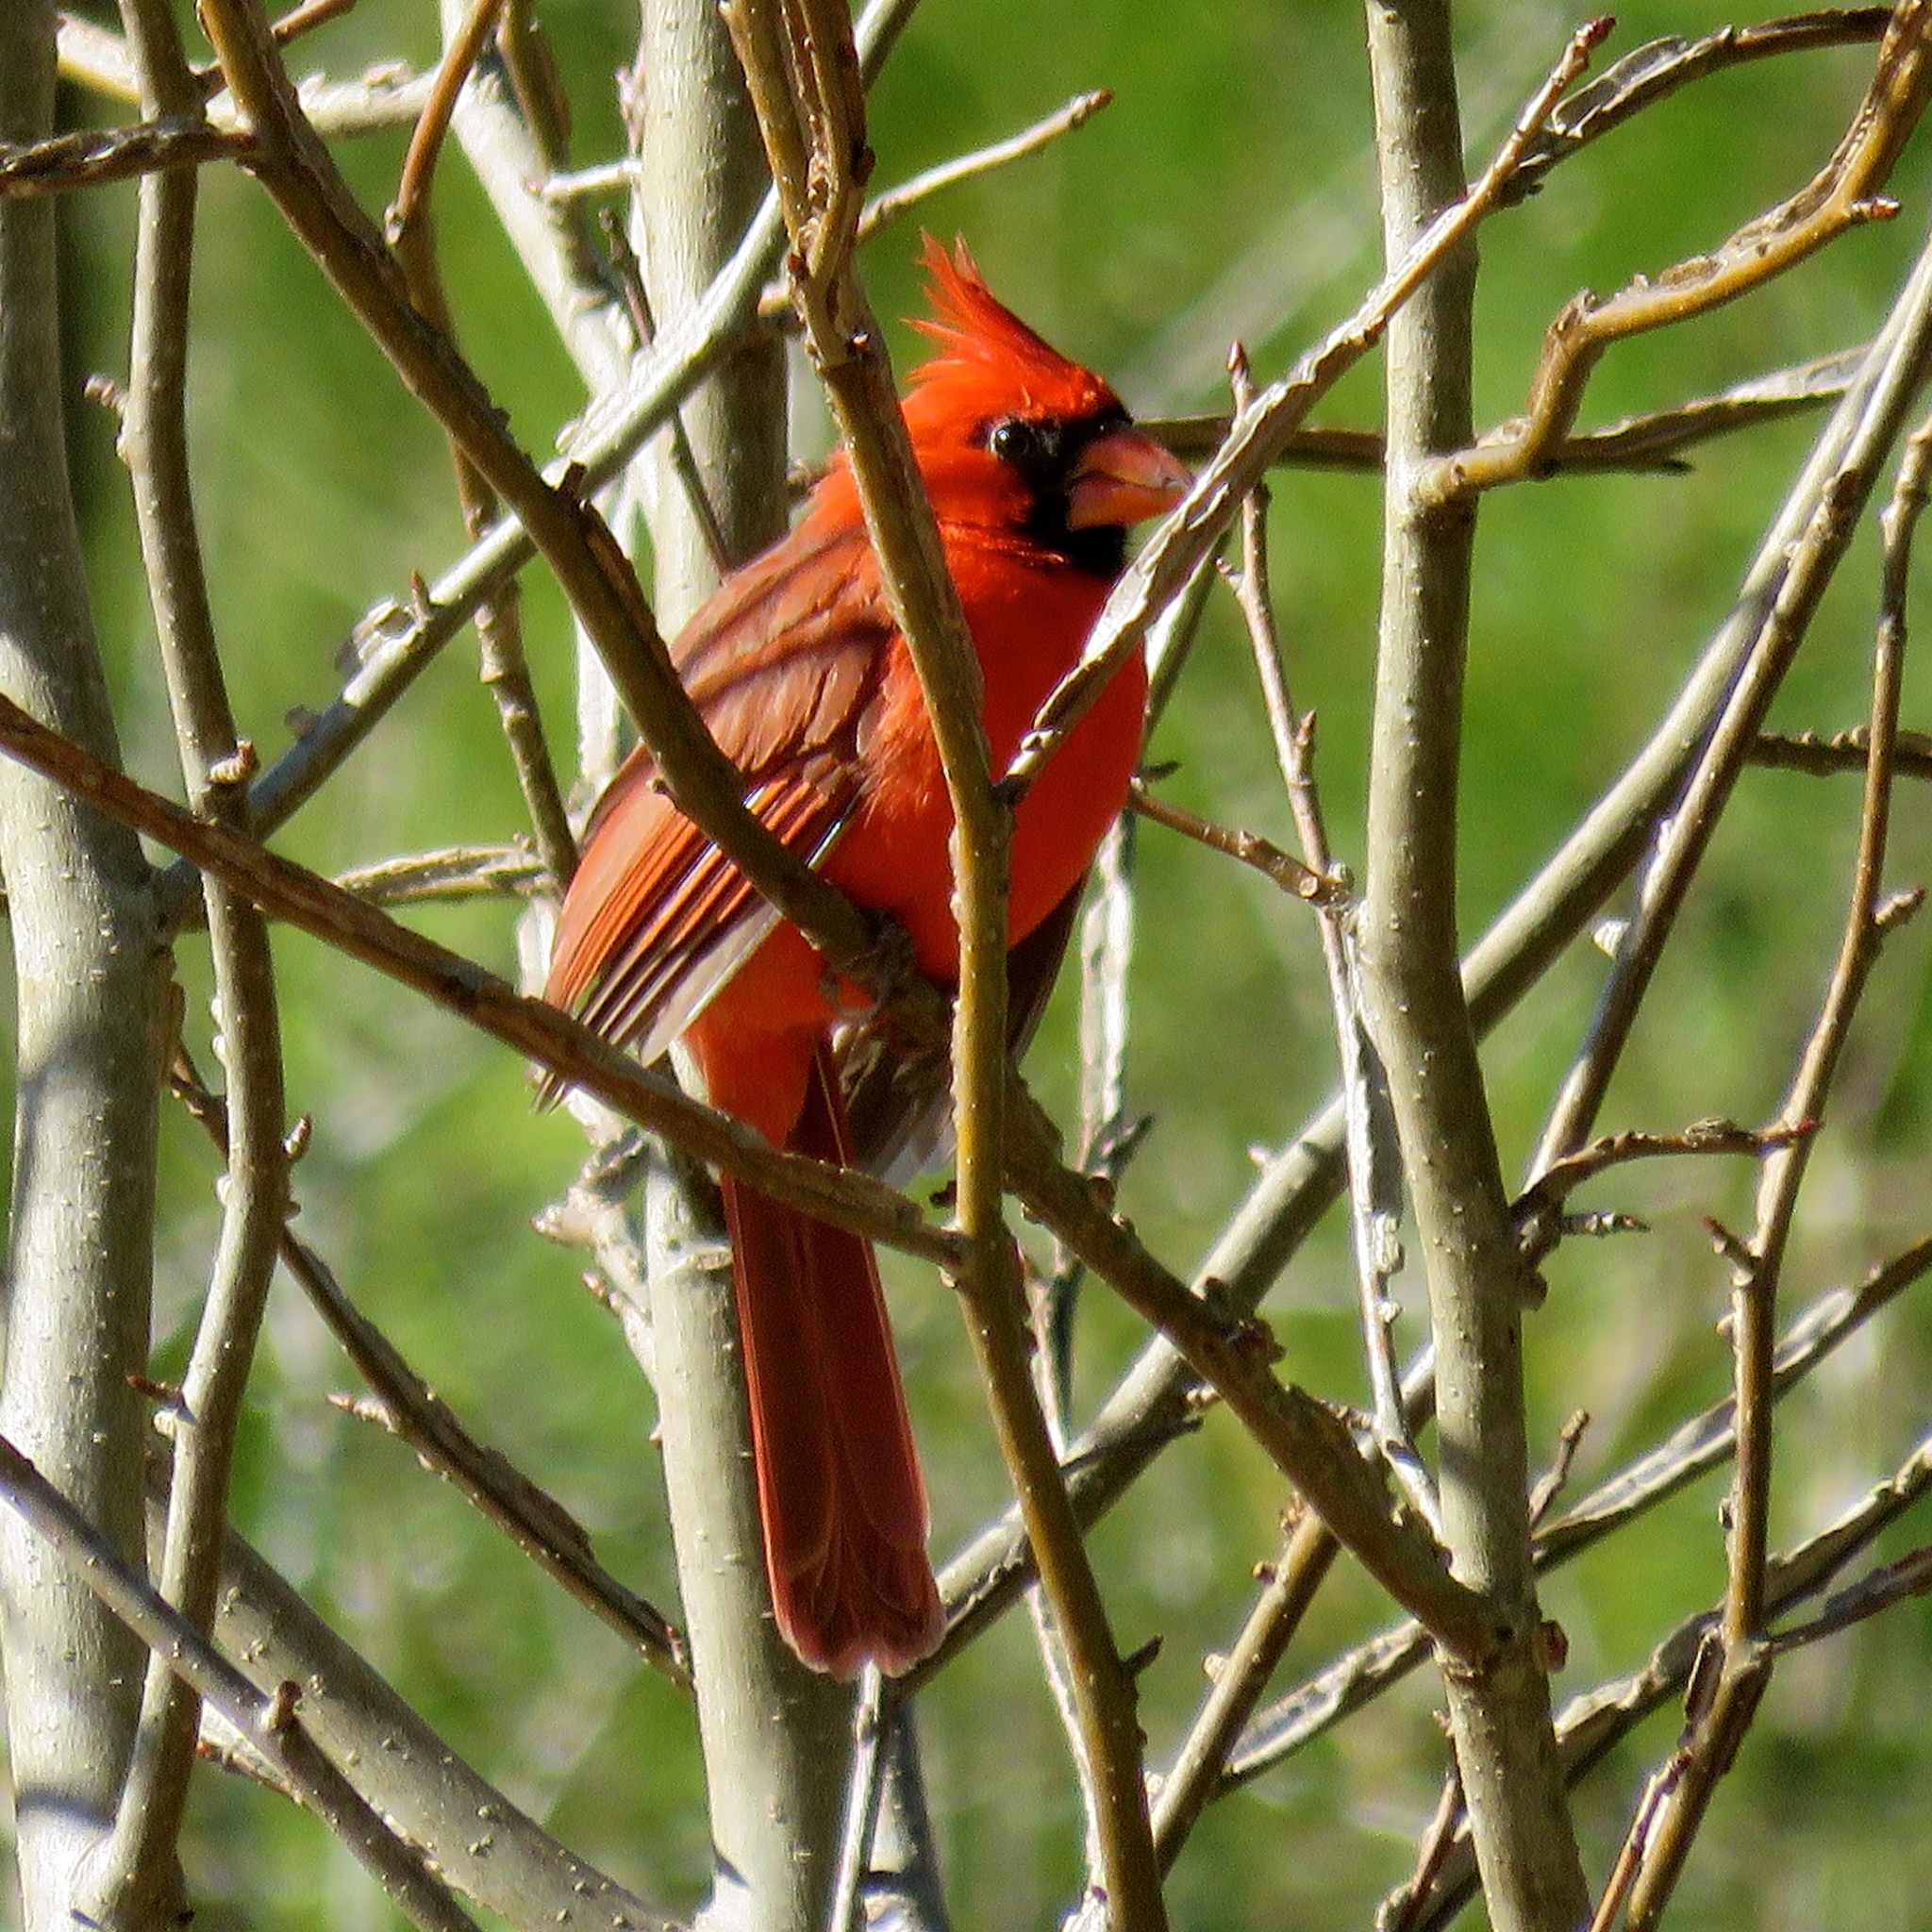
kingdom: Animalia
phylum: Chordata
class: Aves
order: Passeriformes
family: Cardinalidae
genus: Cardinalis
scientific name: Cardinalis cardinalis
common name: Northern cardinal
